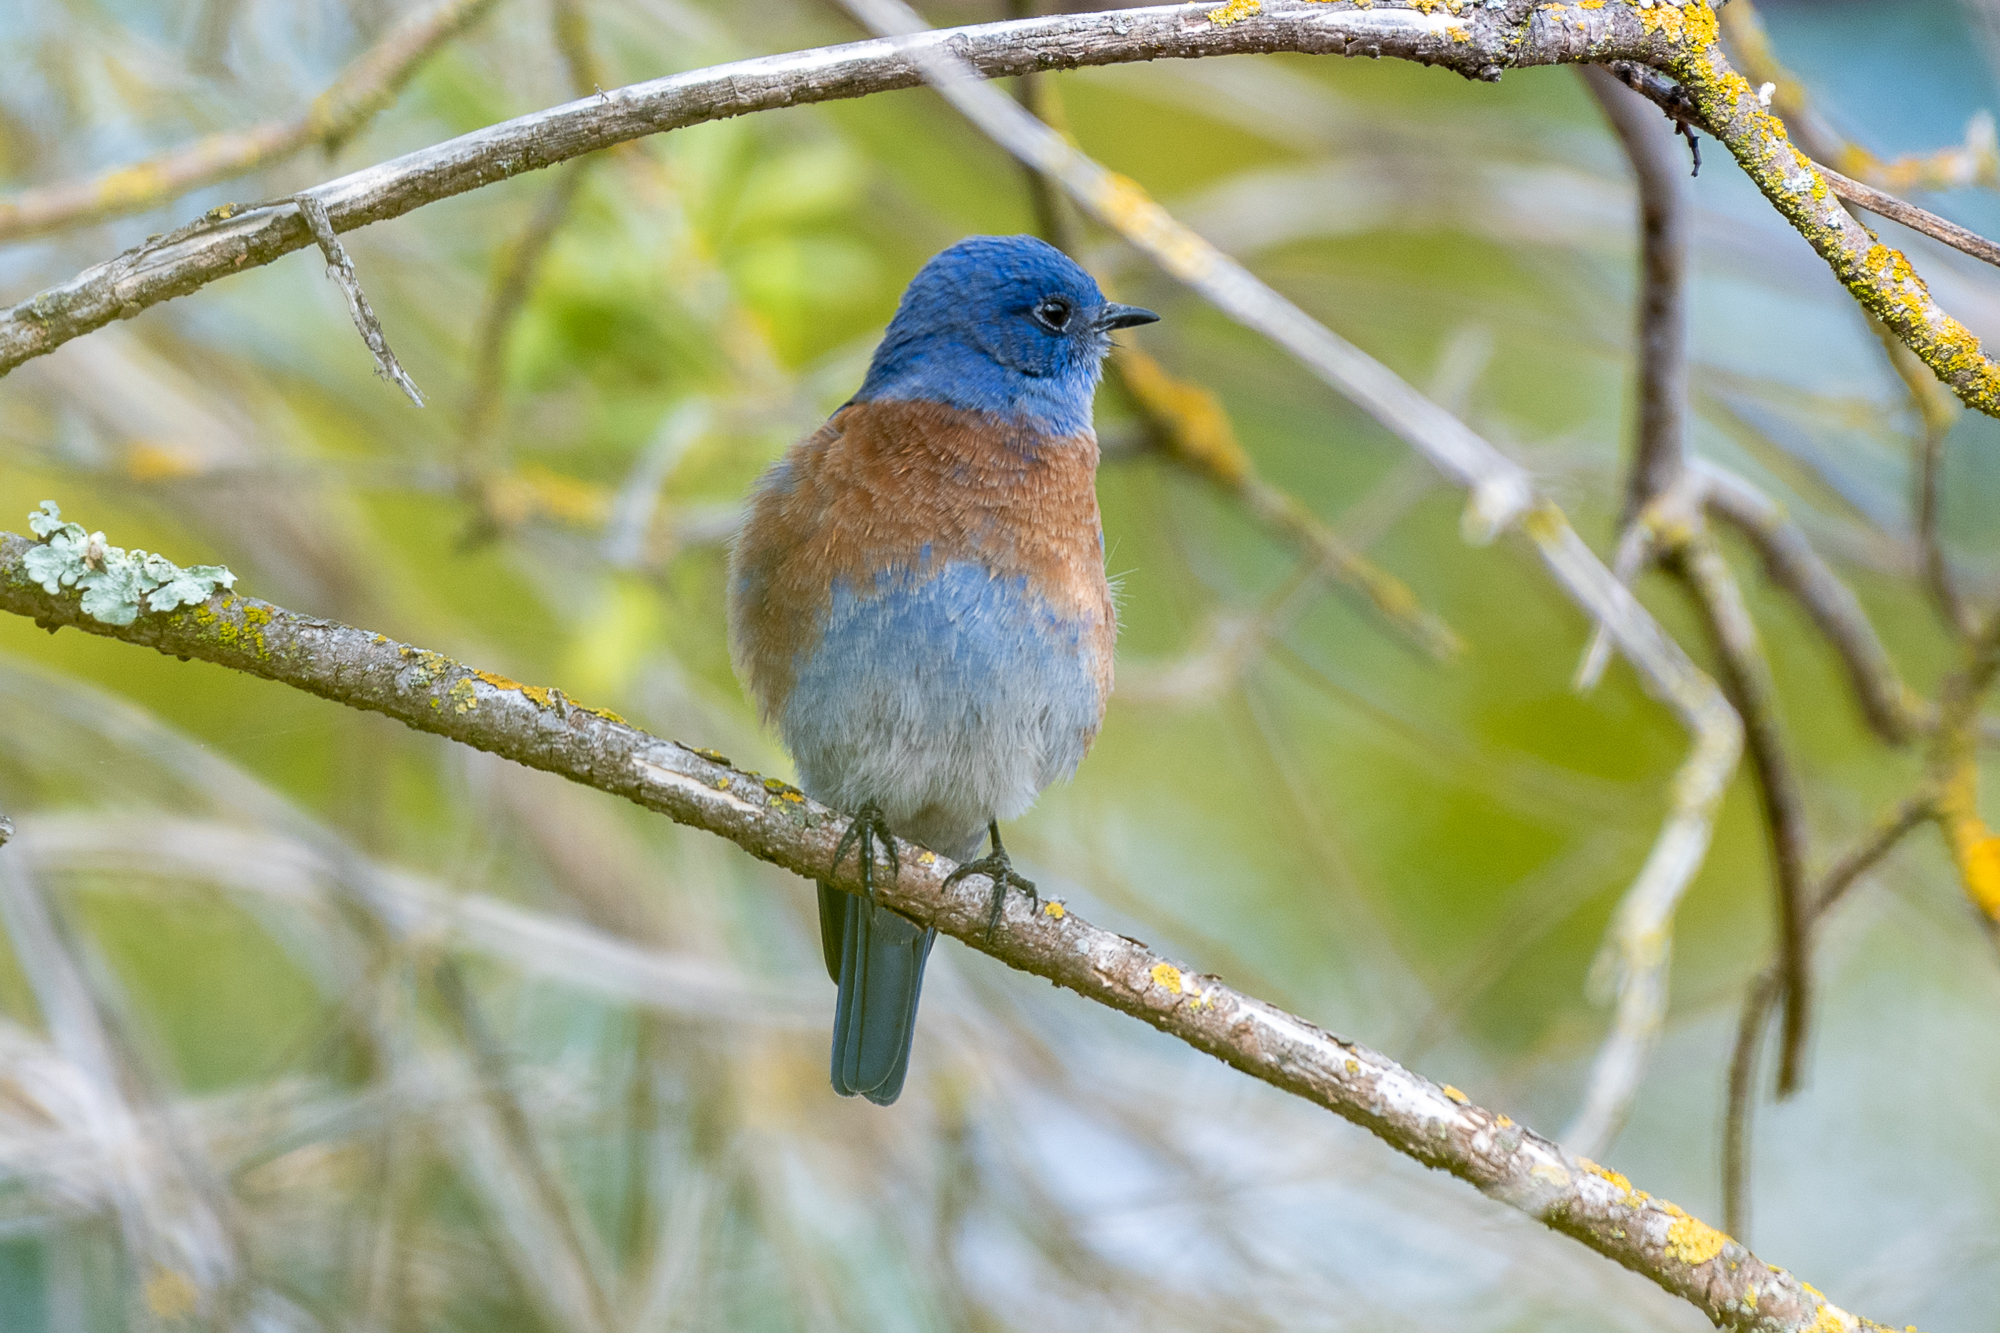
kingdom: Animalia
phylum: Chordata
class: Aves
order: Passeriformes
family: Turdidae
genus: Sialia
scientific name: Sialia mexicana
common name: Western bluebird
